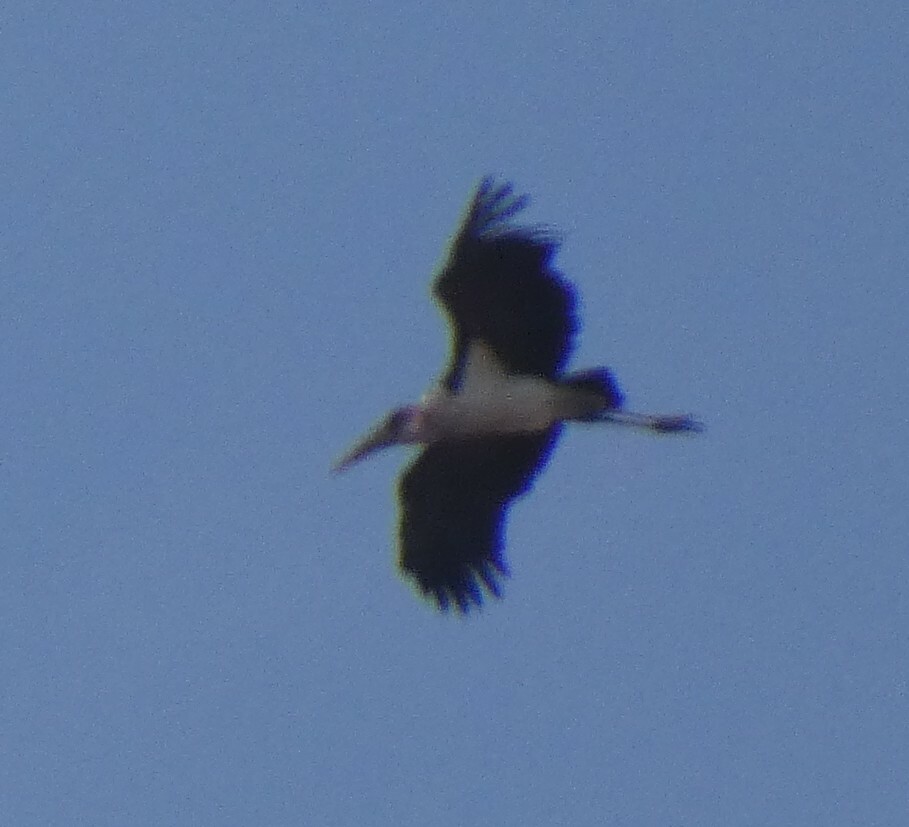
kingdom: Animalia
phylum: Chordata
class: Aves
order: Ciconiiformes
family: Ciconiidae
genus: Leptoptilos
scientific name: Leptoptilos crumenifer
